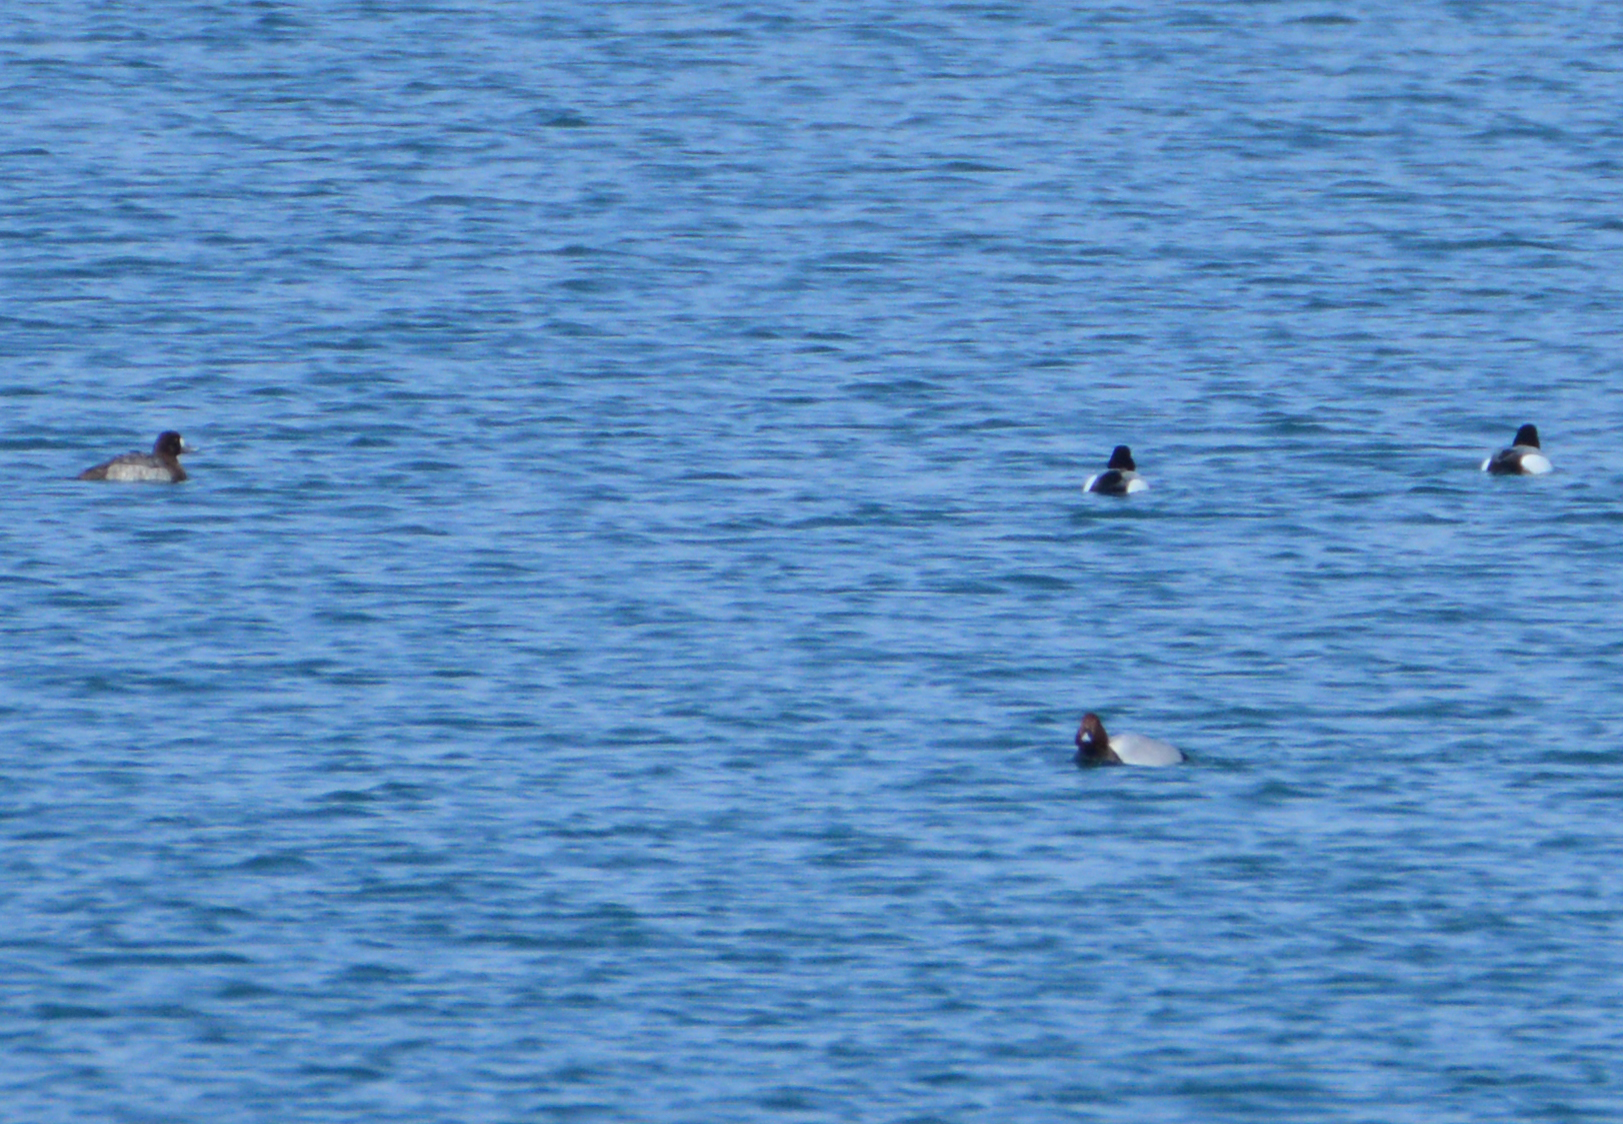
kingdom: Animalia
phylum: Chordata
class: Aves
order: Anseriformes
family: Anatidae
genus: Aythya
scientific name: Aythya marila
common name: Greater scaup
